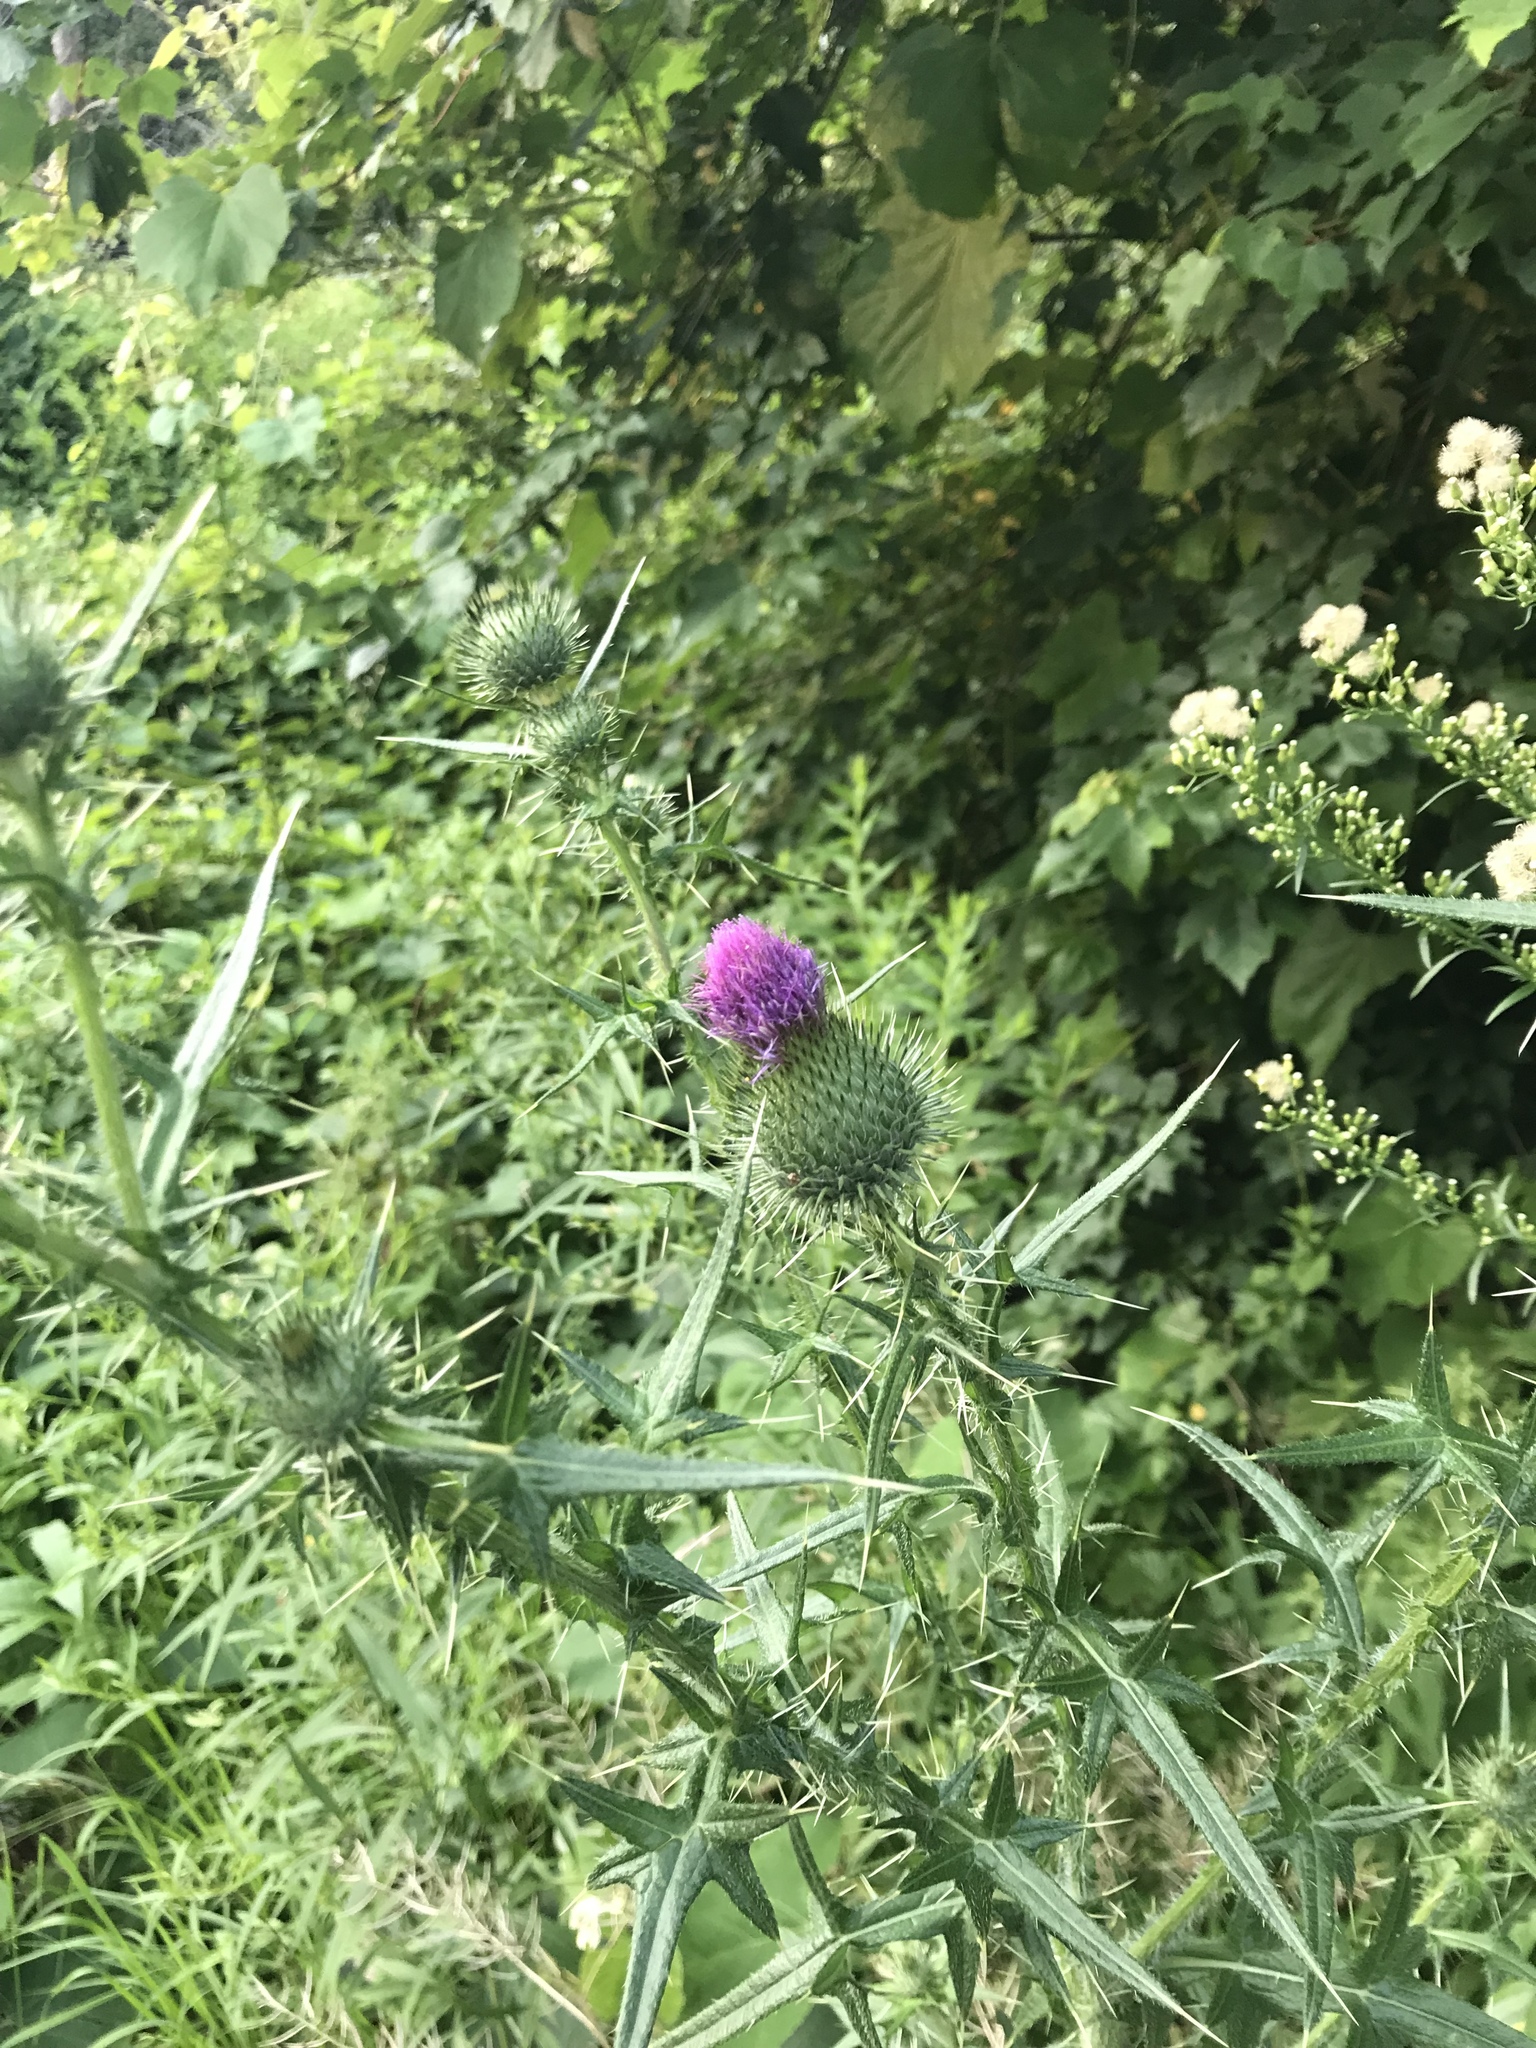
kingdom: Plantae
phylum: Tracheophyta
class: Magnoliopsida
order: Asterales
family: Asteraceae
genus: Cirsium
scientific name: Cirsium vulgare
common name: Bull thistle
